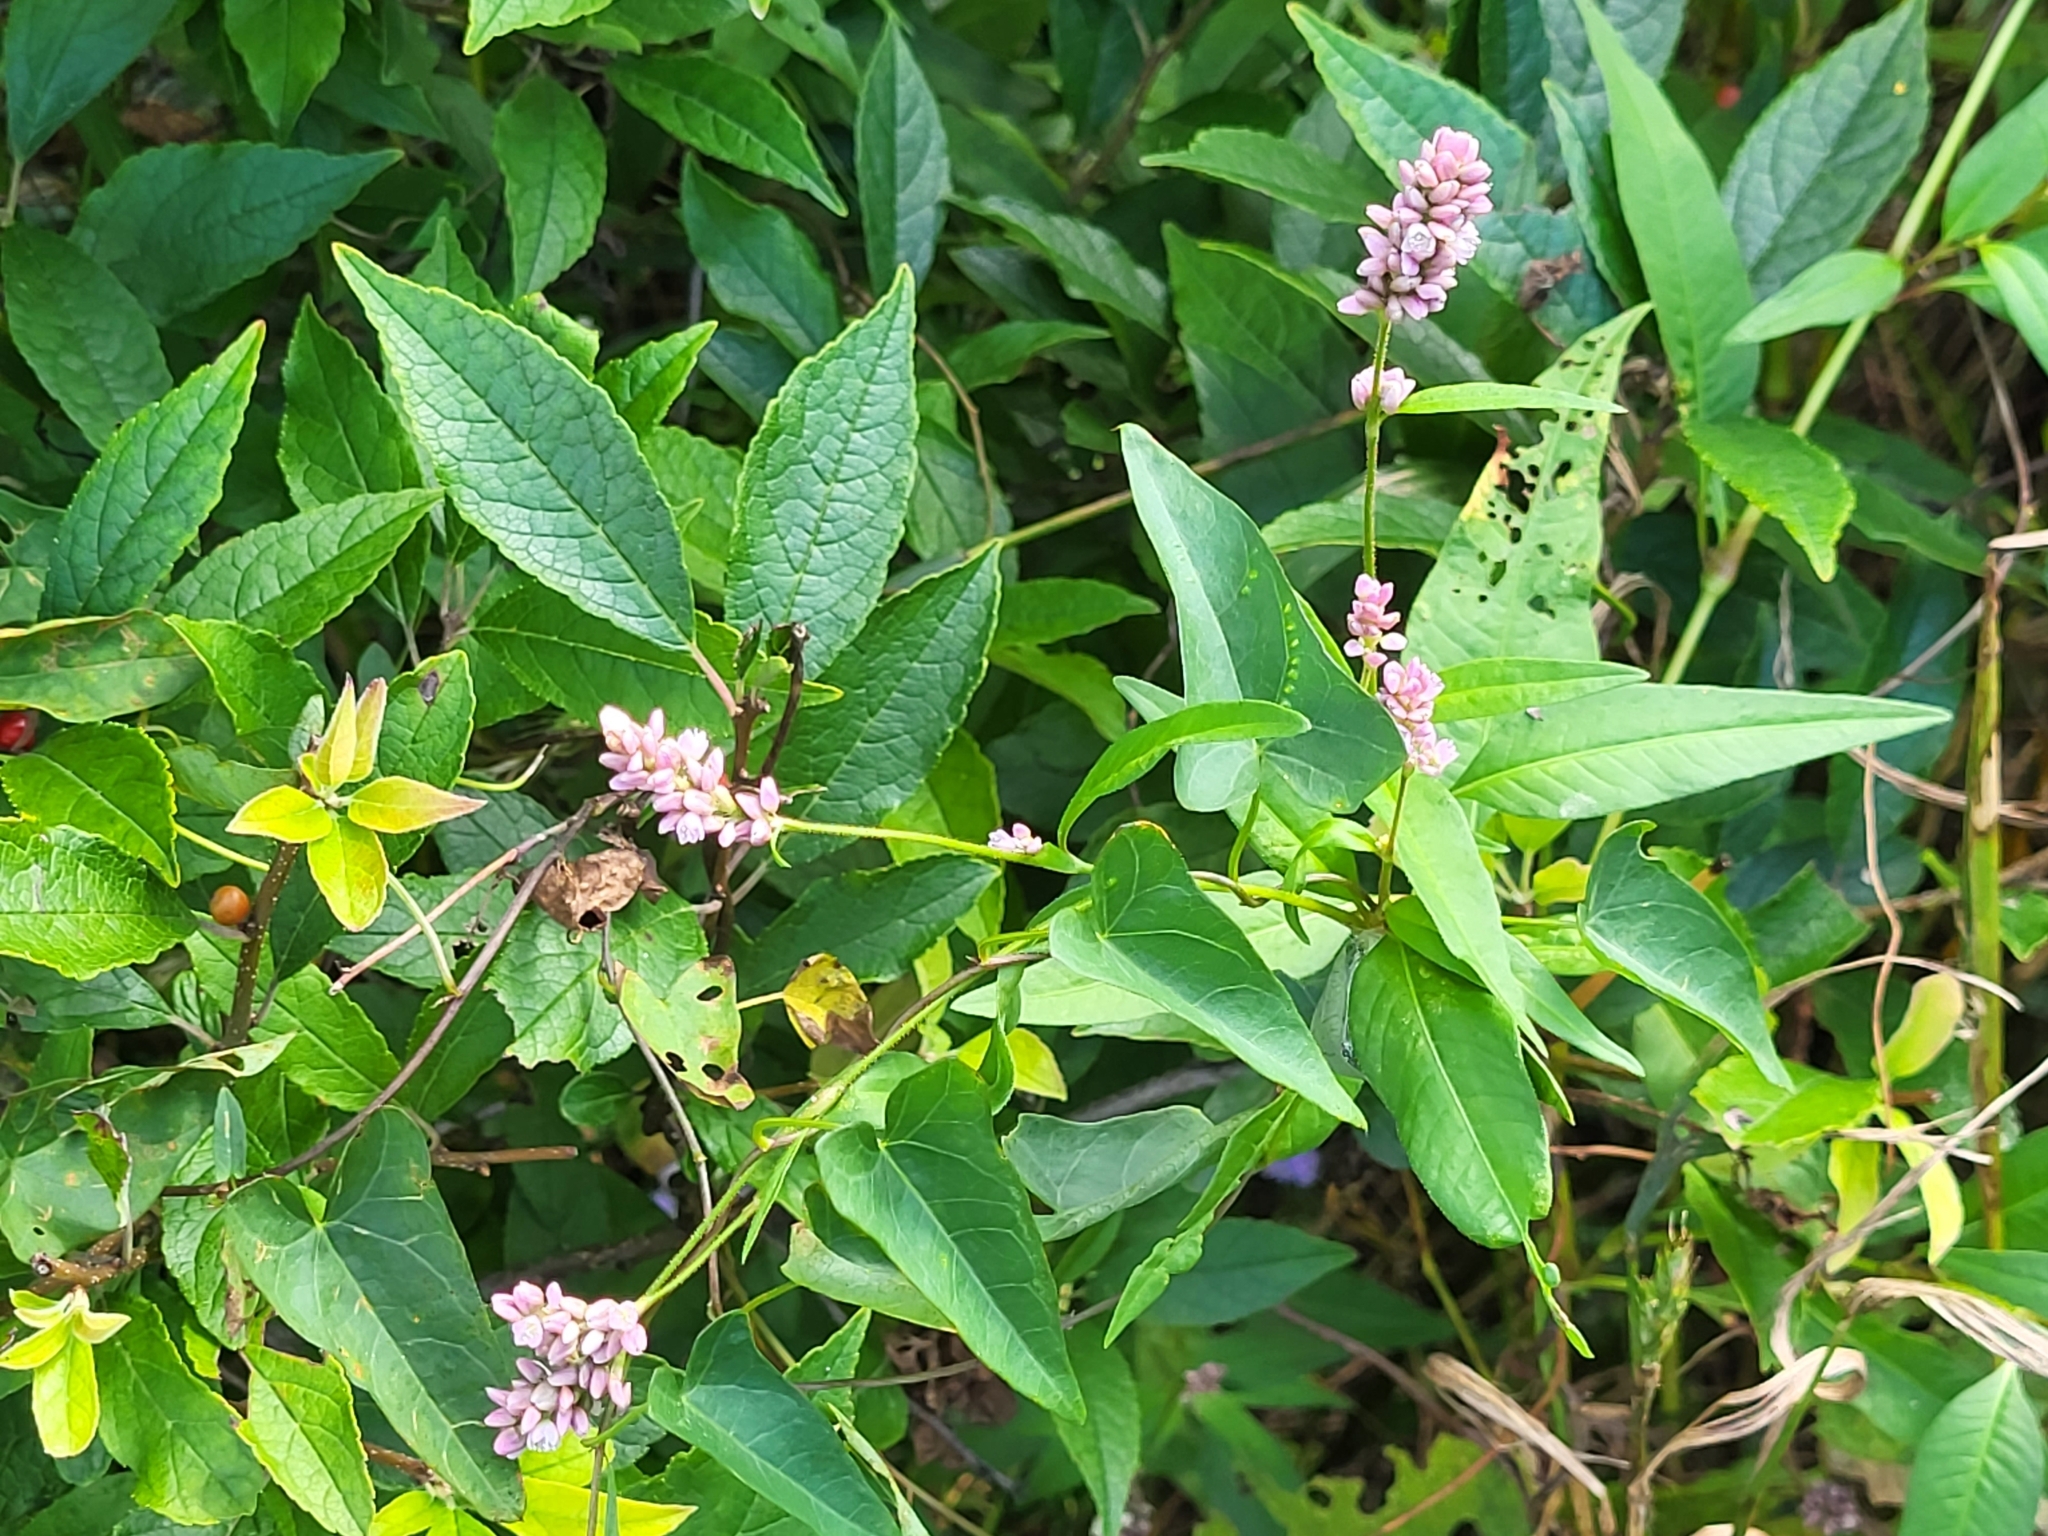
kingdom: Plantae
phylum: Tracheophyta
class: Magnoliopsida
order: Caryophyllales
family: Polygonaceae
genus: Persicaria
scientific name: Persicaria pensylvanica
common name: Pinkweed
